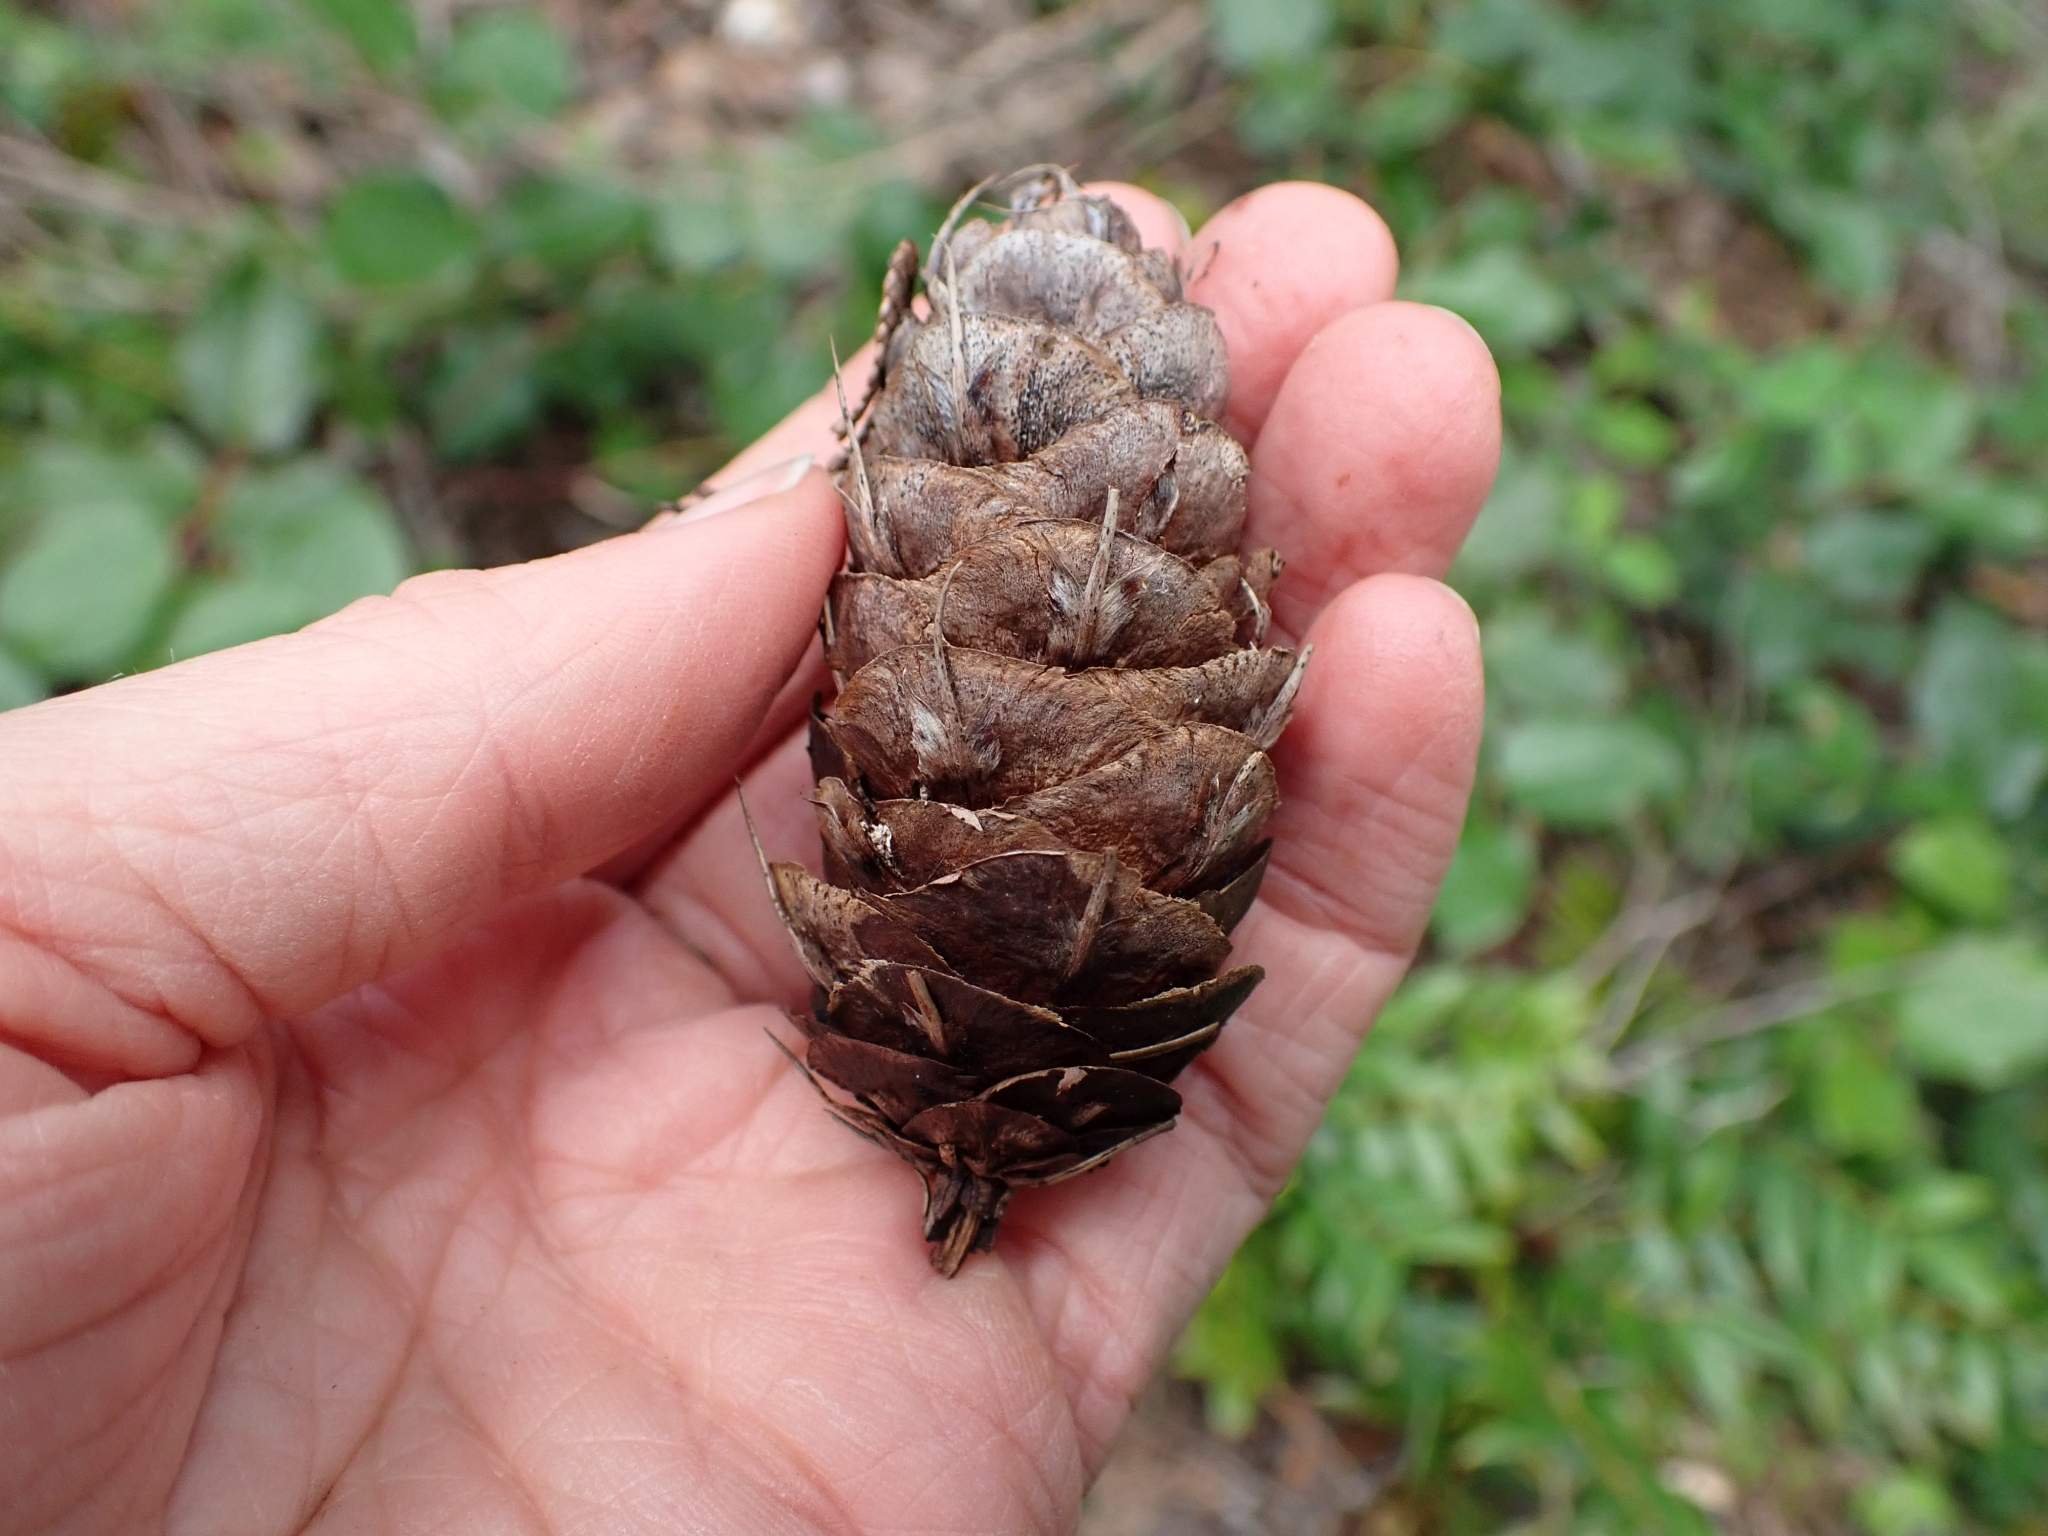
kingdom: Plantae
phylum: Tracheophyta
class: Pinopsida
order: Pinales
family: Pinaceae
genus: Pseudotsuga
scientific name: Pseudotsuga menziesii
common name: Douglas fir
